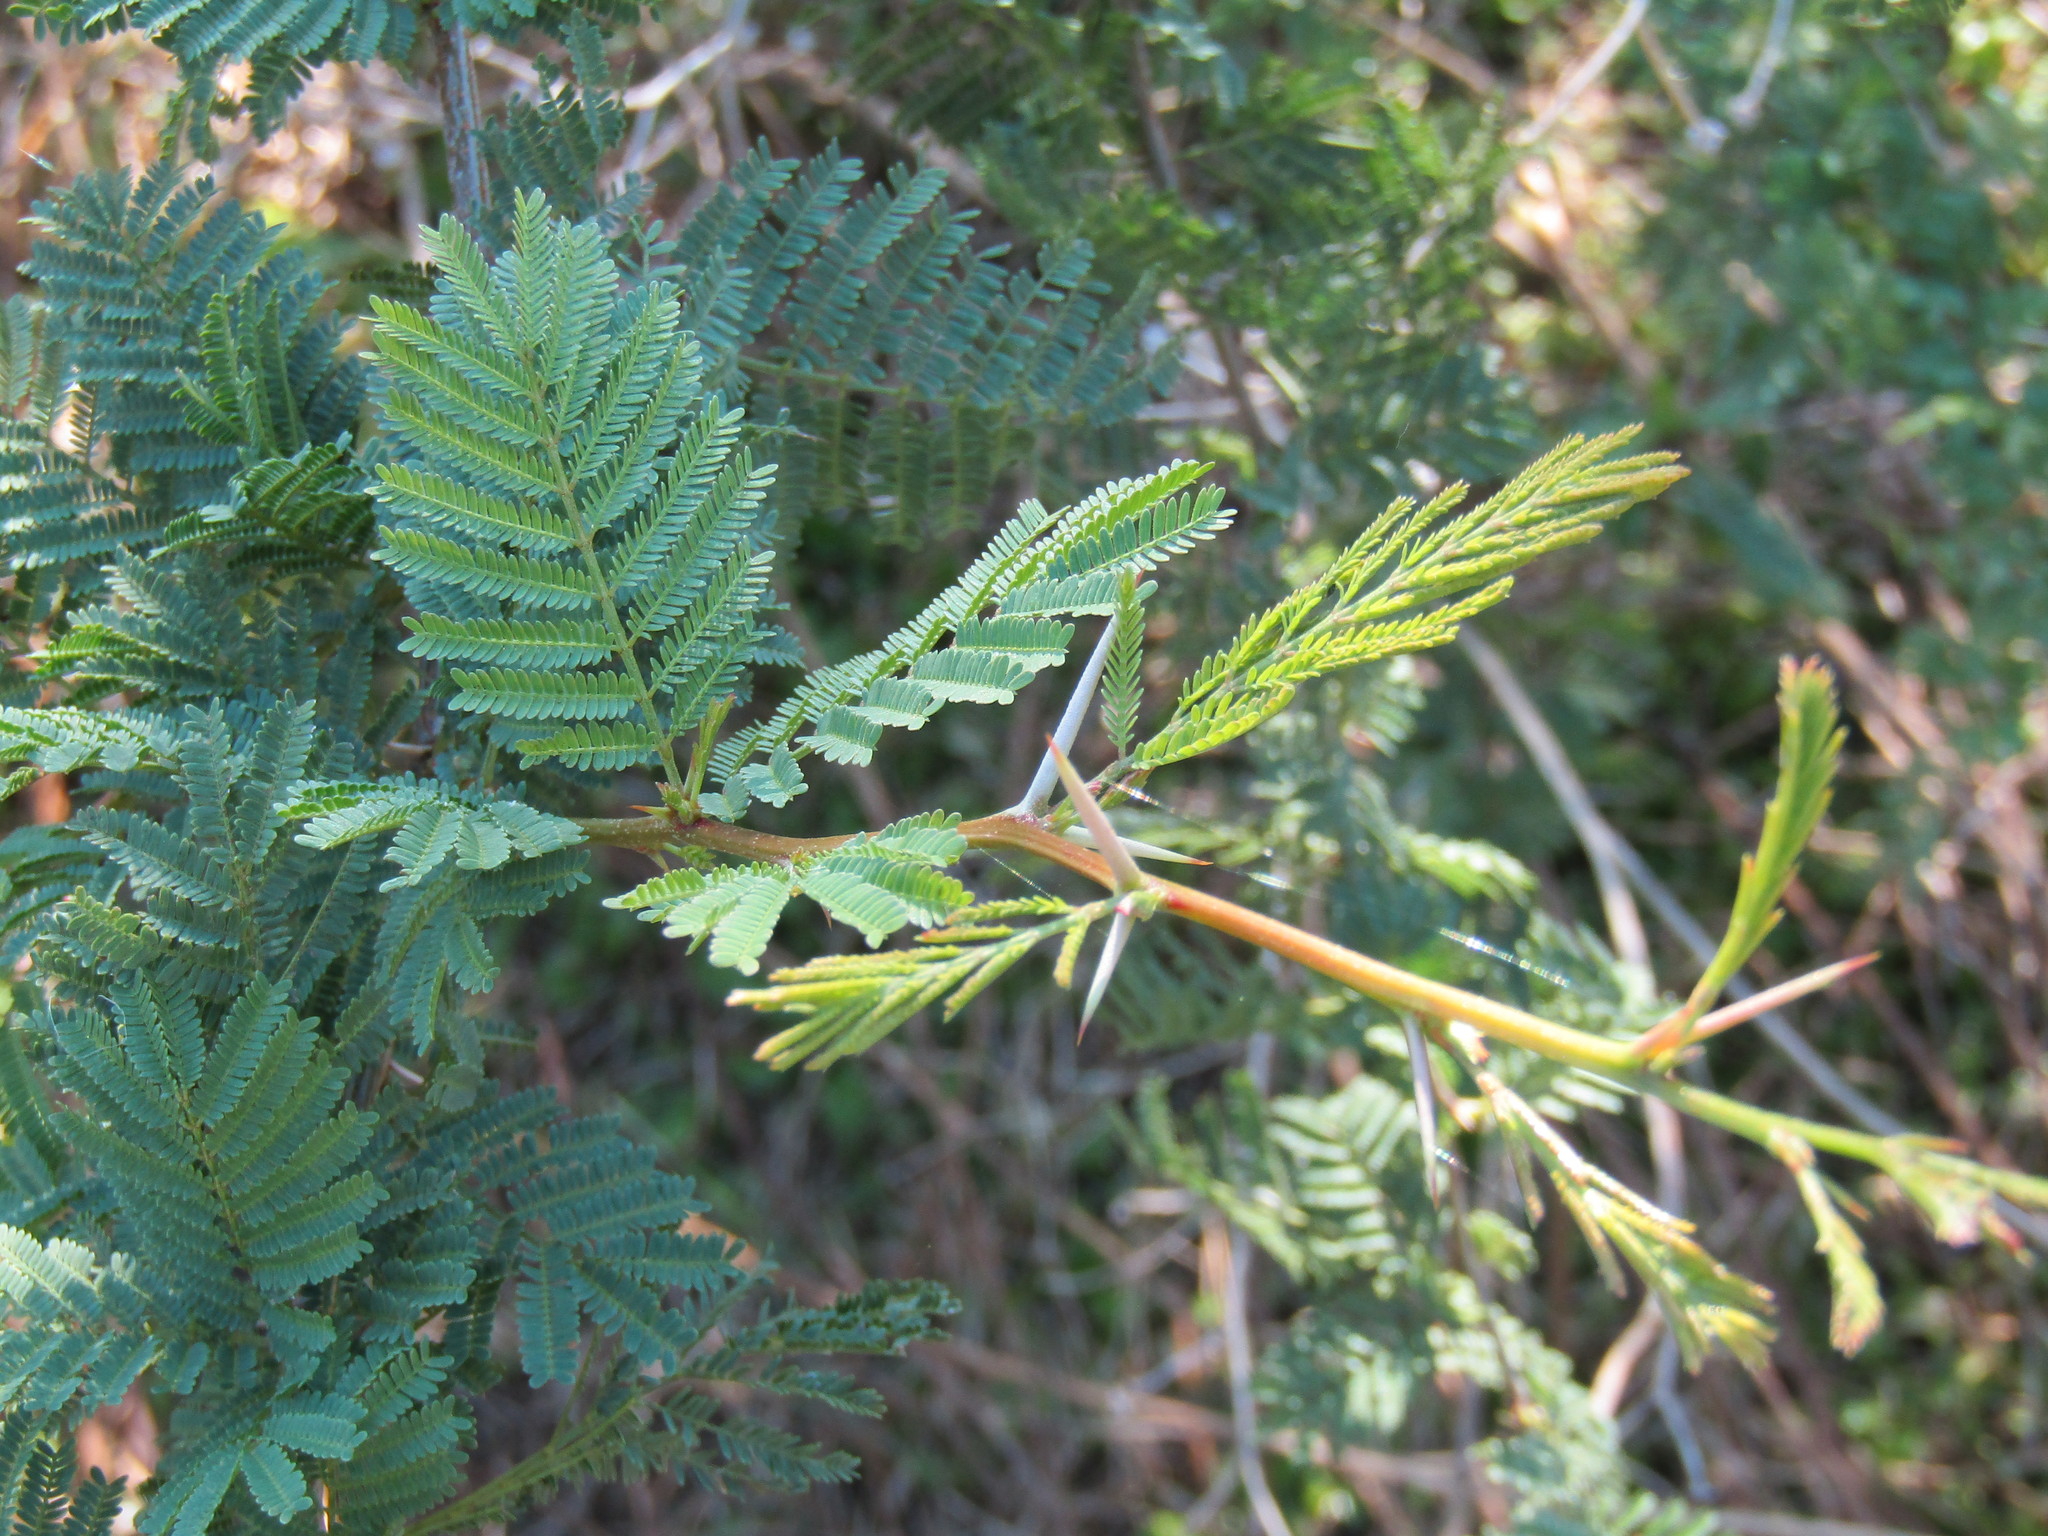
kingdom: Plantae
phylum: Tracheophyta
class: Magnoliopsida
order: Fabales
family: Fabaceae
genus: Vachellia
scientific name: Vachellia caven
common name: Roman cassie
